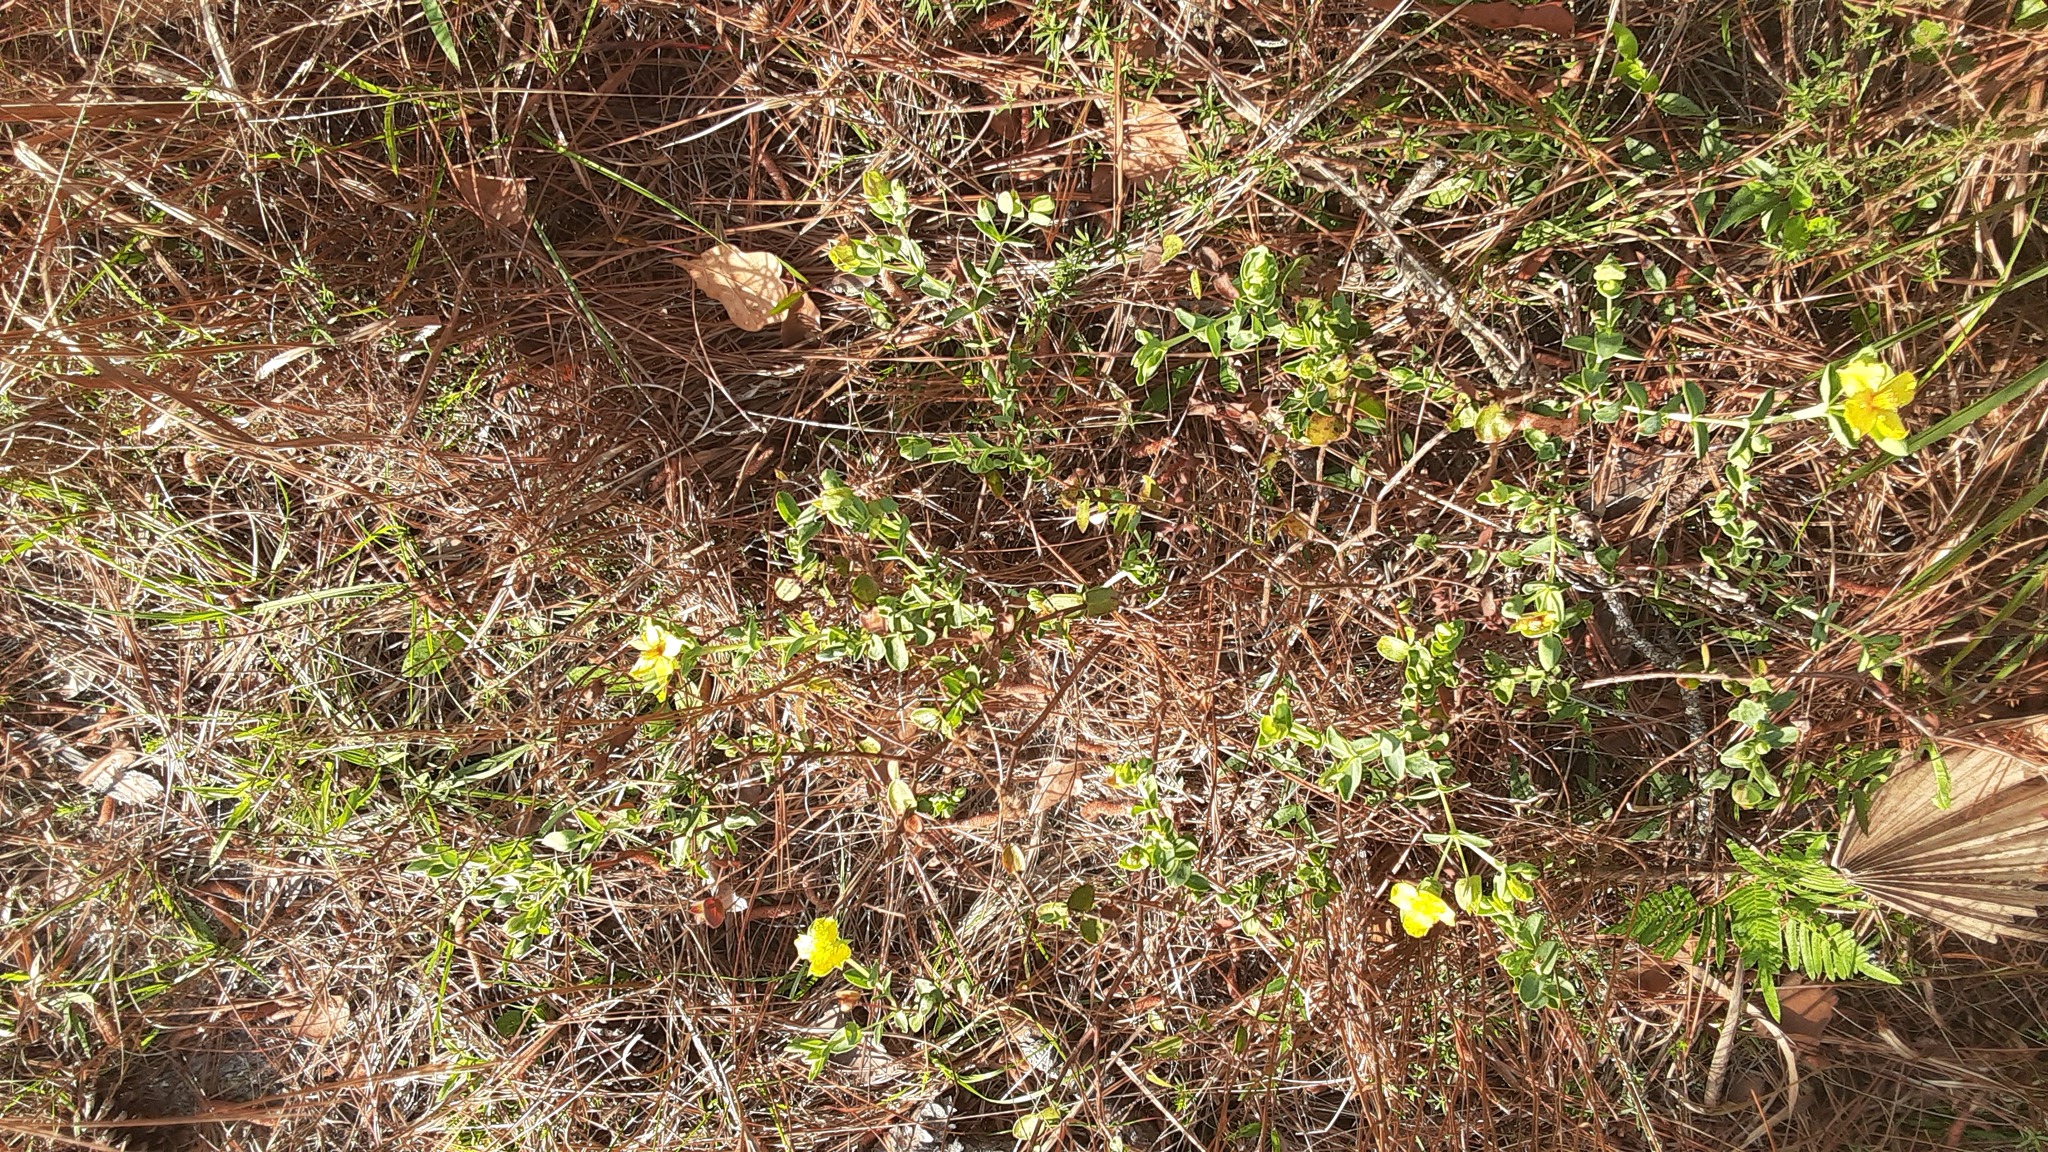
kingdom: Plantae
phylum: Tracheophyta
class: Magnoliopsida
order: Malpighiales
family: Hypericaceae
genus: Hypericum
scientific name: Hypericum tetrapetalum
